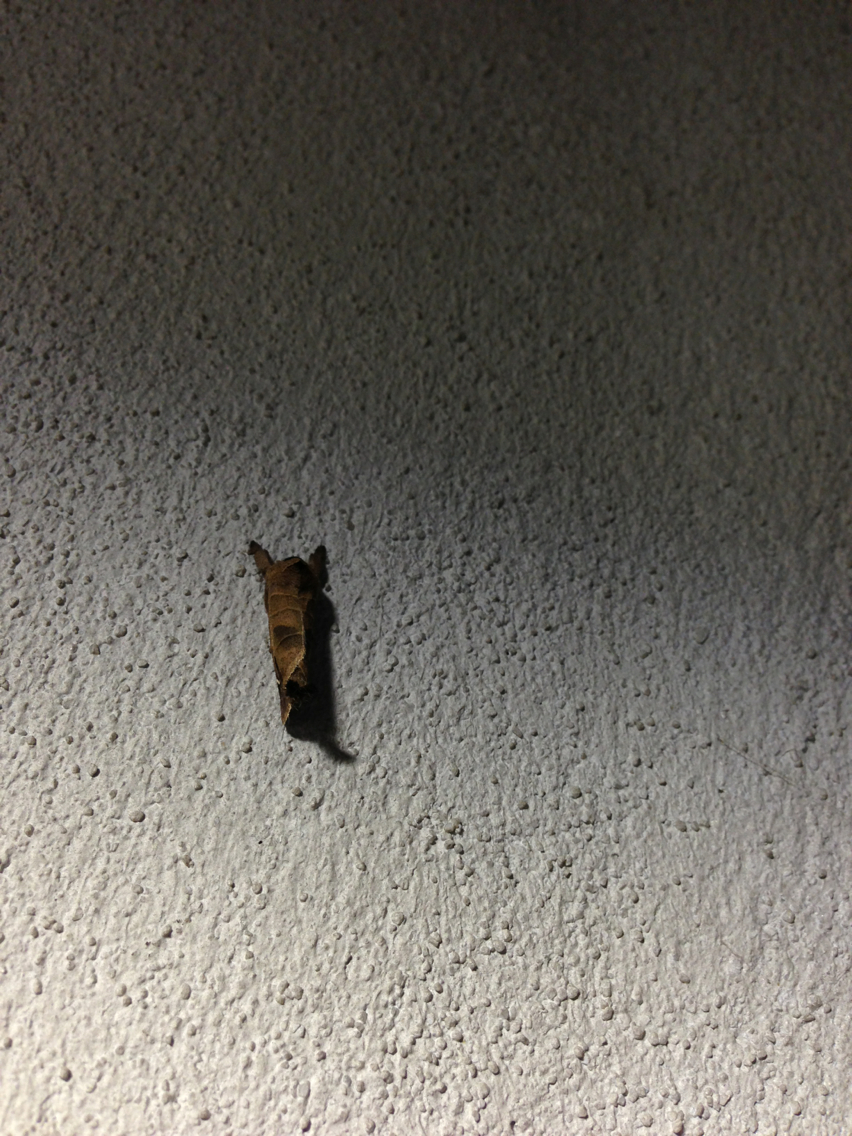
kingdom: Animalia
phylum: Arthropoda
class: Insecta
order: Lepidoptera
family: Notodontidae
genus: Clostera
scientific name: Clostera albosigma
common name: Sigmoid prominent
